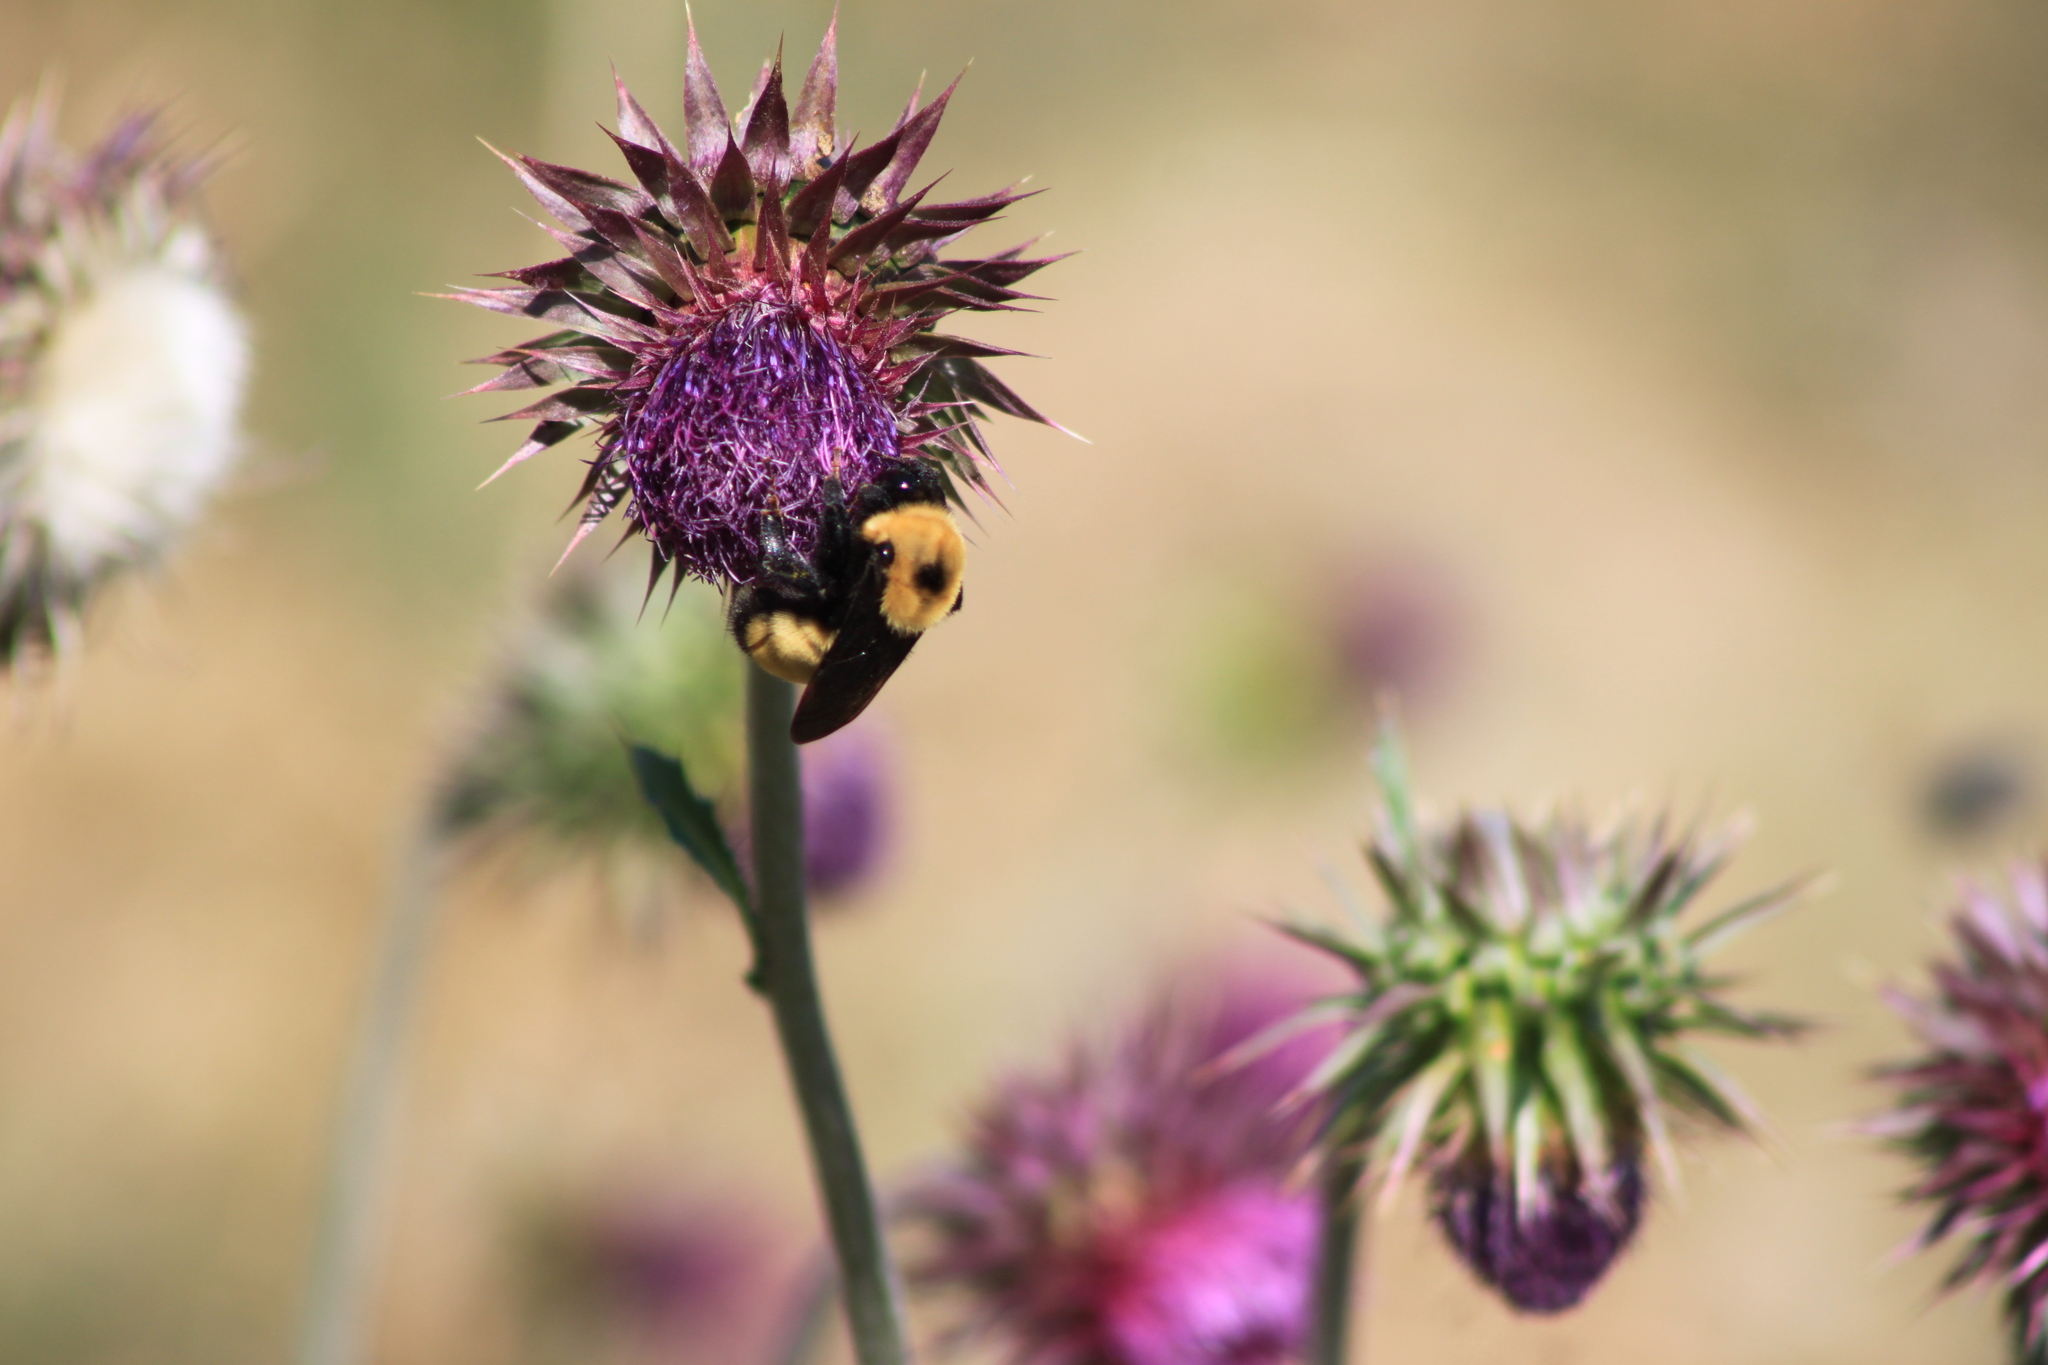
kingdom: Animalia
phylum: Arthropoda
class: Insecta
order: Hymenoptera
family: Apidae
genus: Bombus
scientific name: Bombus nevadensis
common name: Nevada bumble bee
